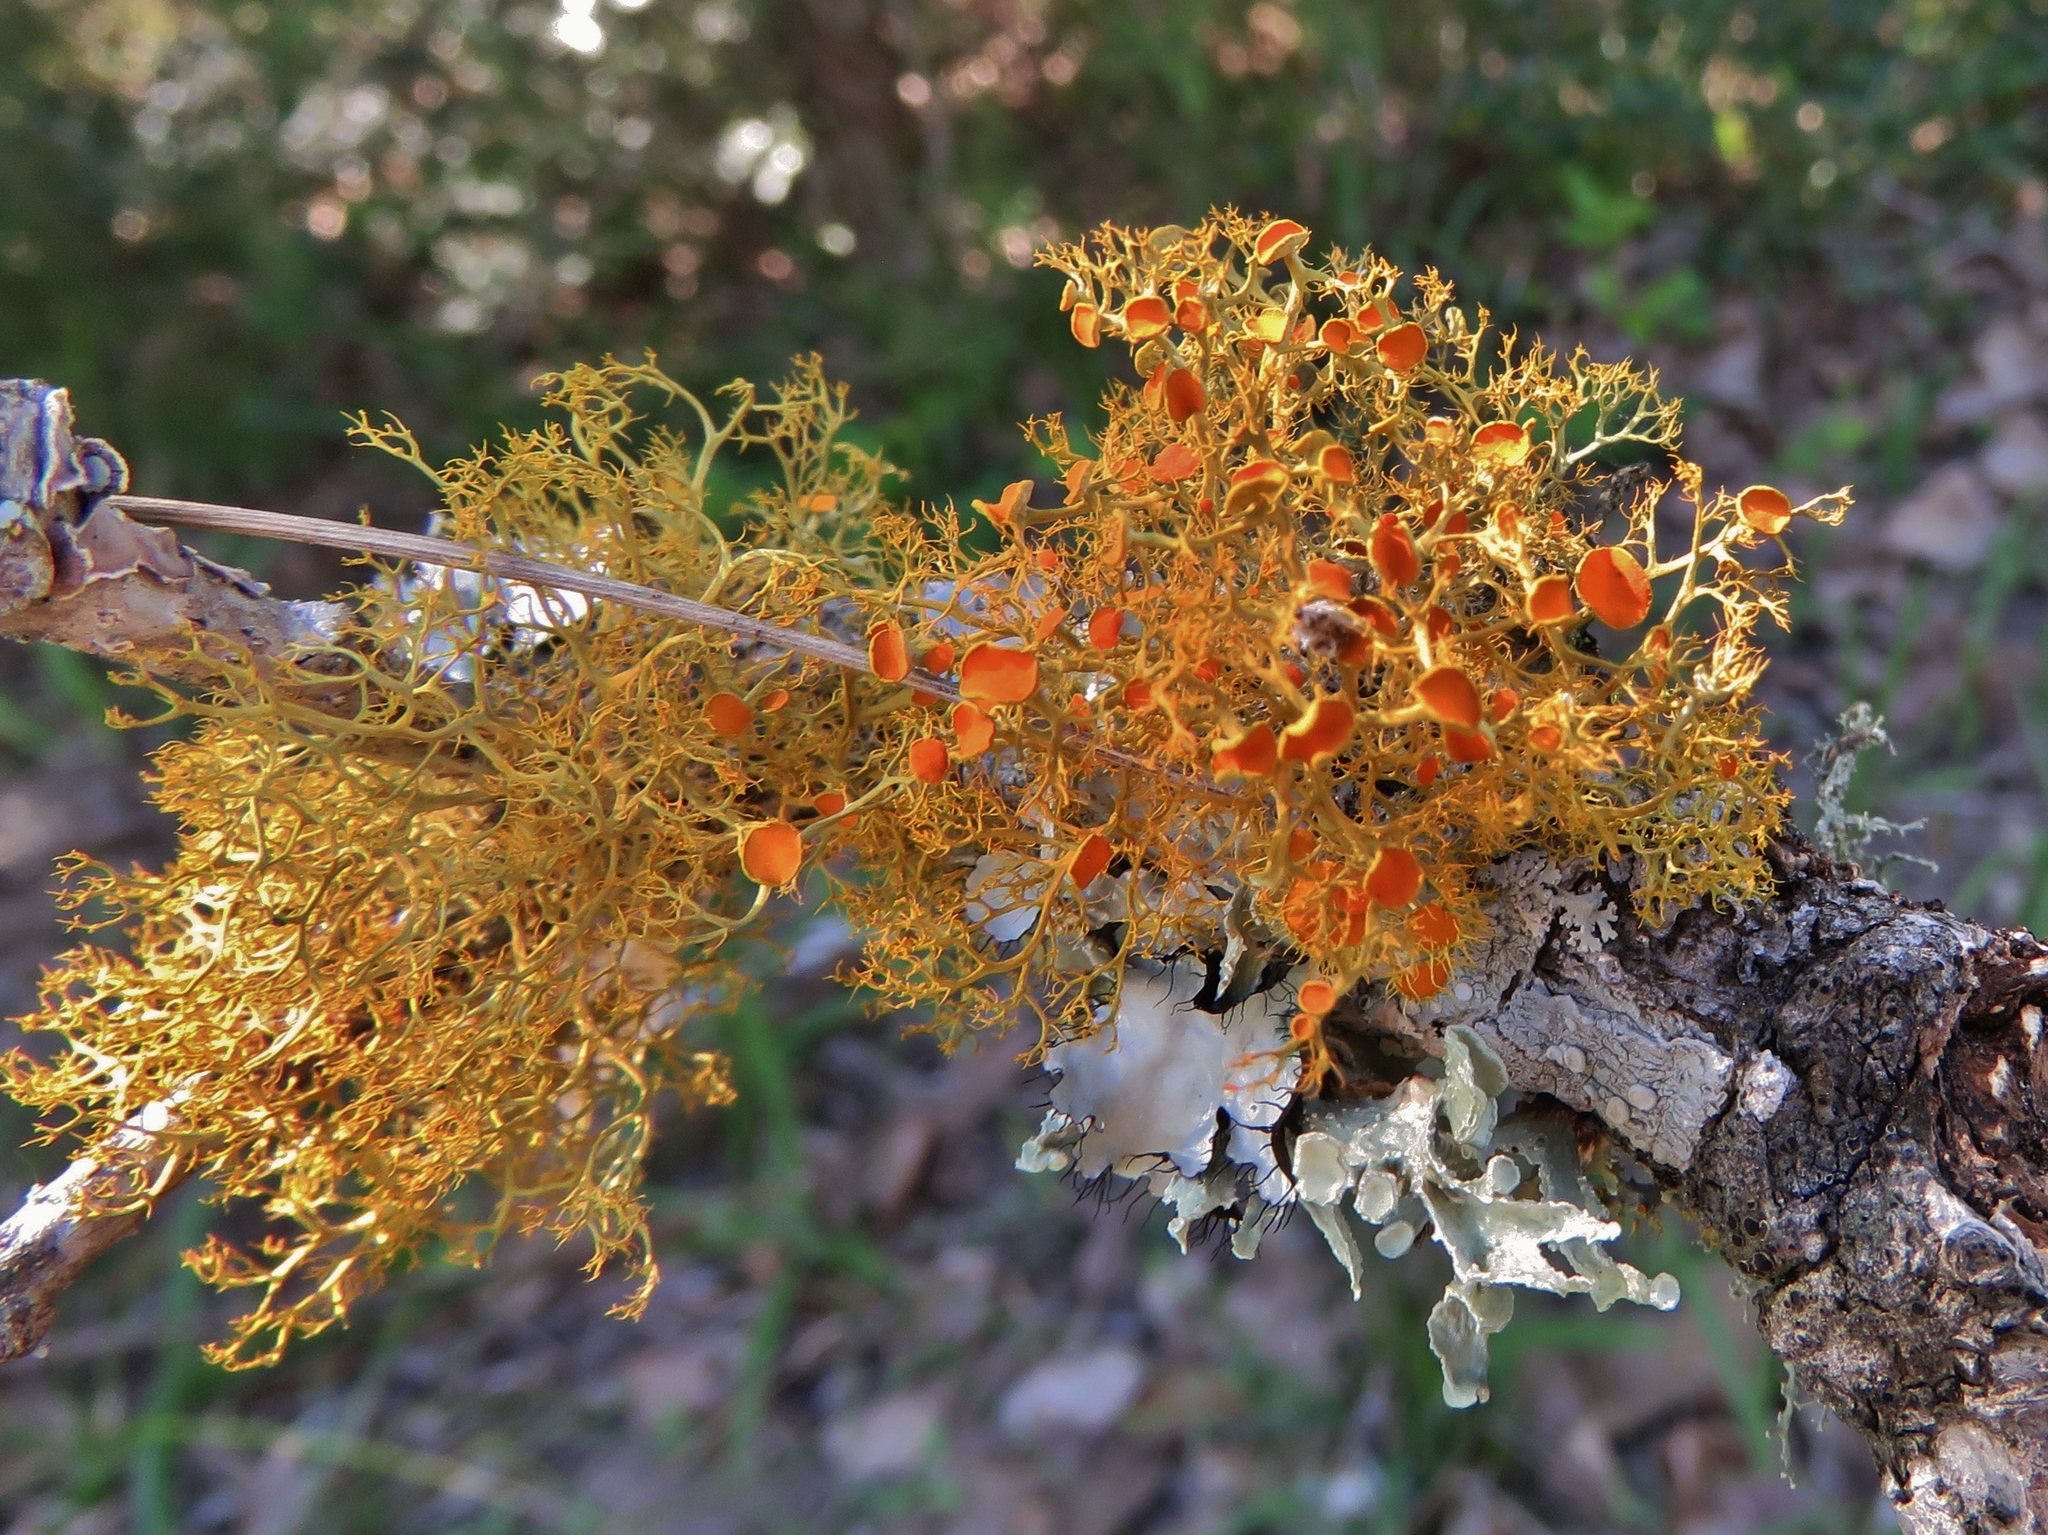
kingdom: Fungi
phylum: Ascomycota
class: Lecanoromycetes
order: Teloschistales
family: Teloschistaceae
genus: Teloschistes
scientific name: Teloschistes exilis
